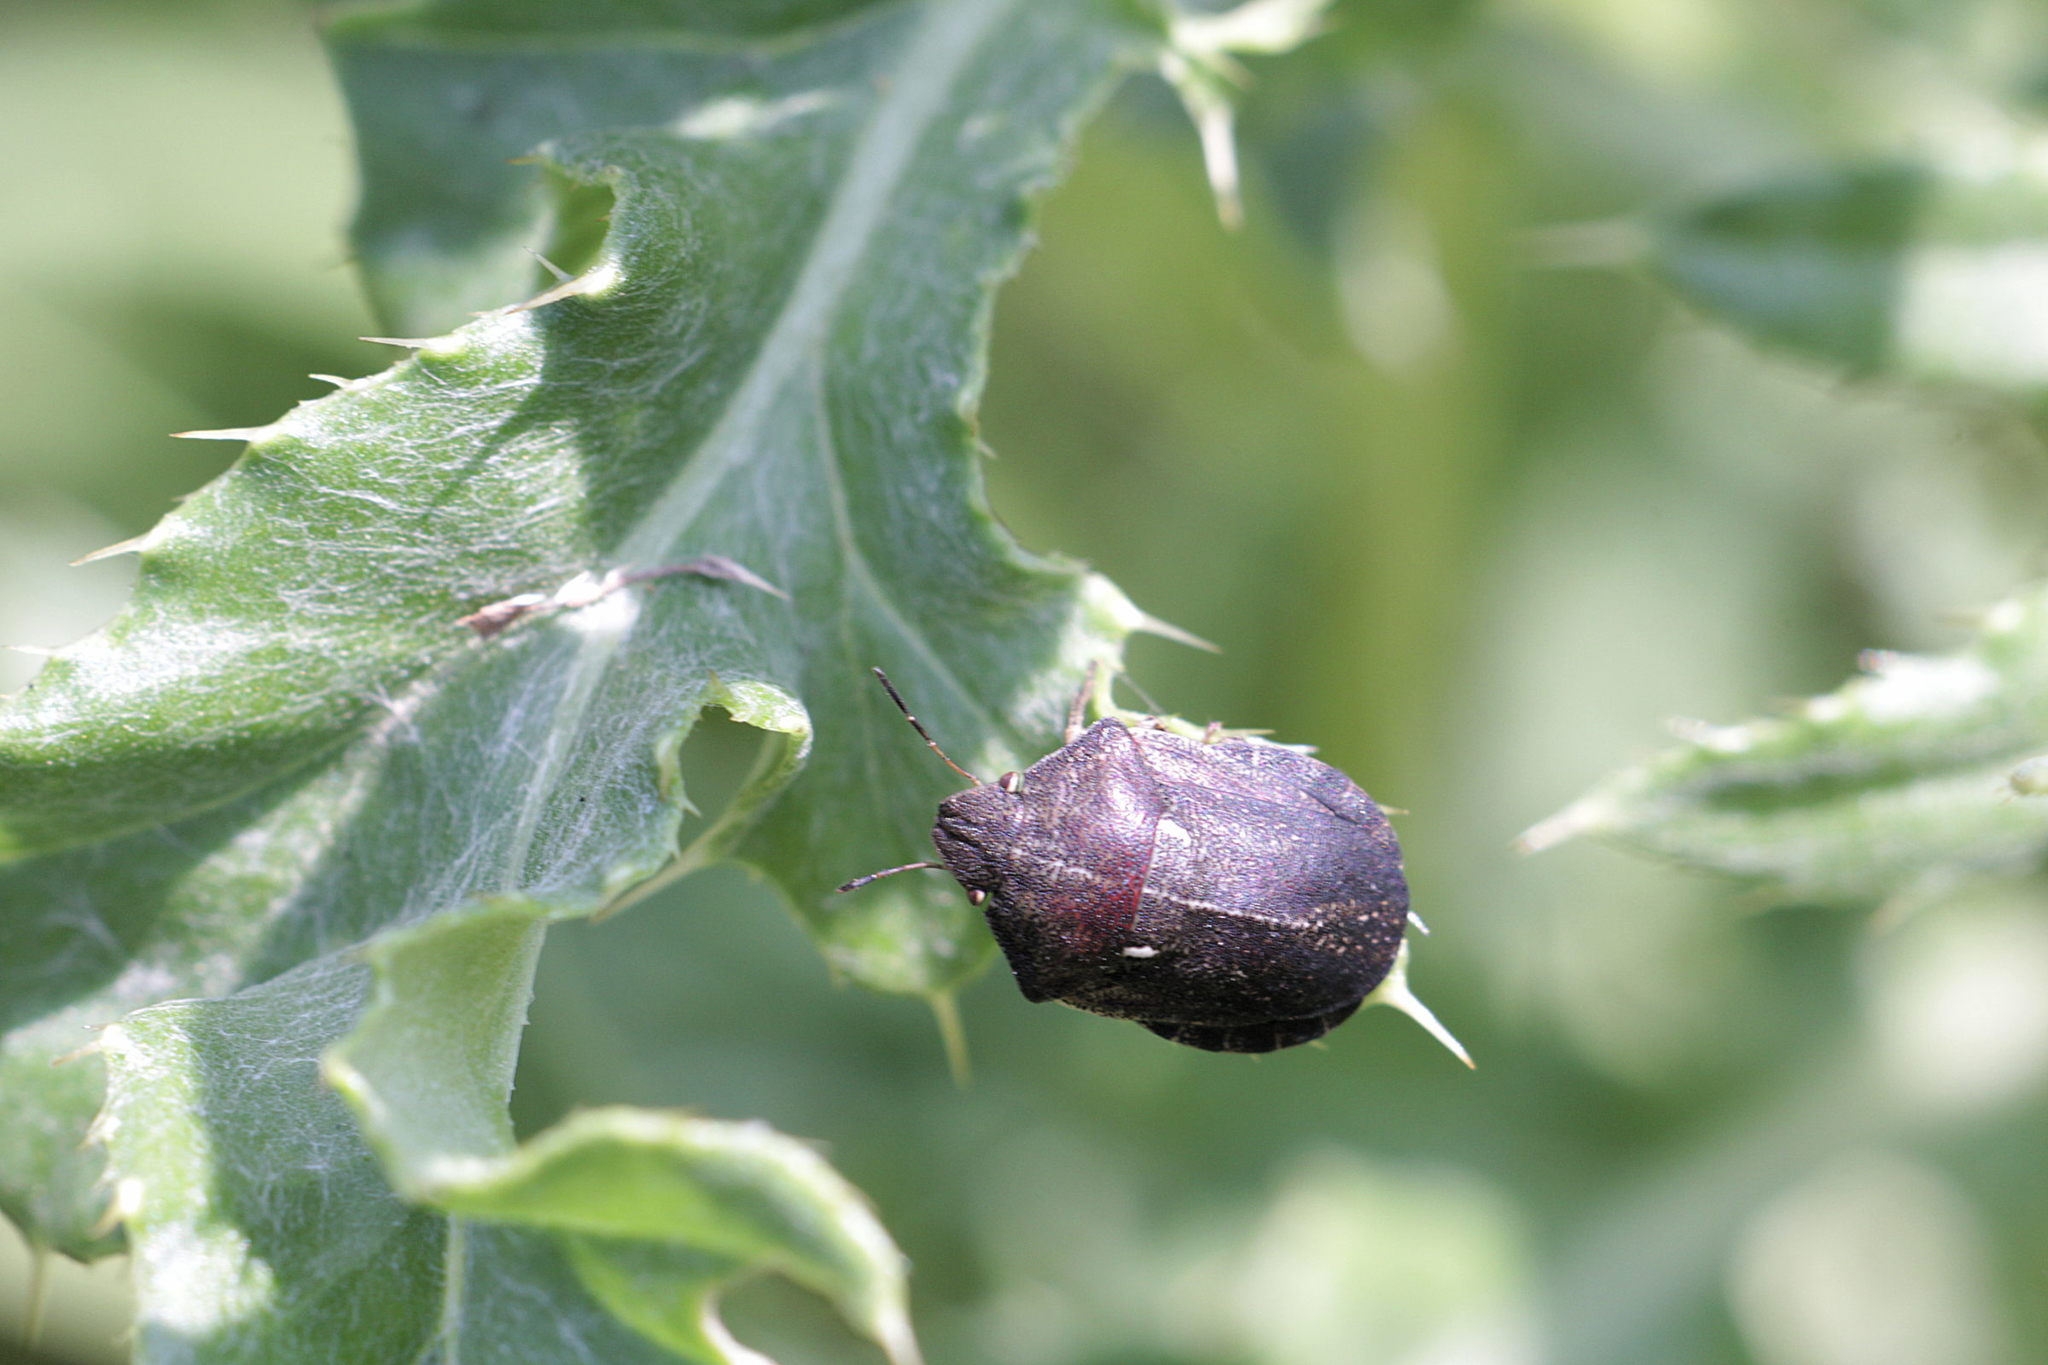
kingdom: Animalia
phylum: Arthropoda
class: Insecta
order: Hemiptera
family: Scutelleridae
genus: Eurygaster
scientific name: Eurygaster testudinaria
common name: Tortoise bug
